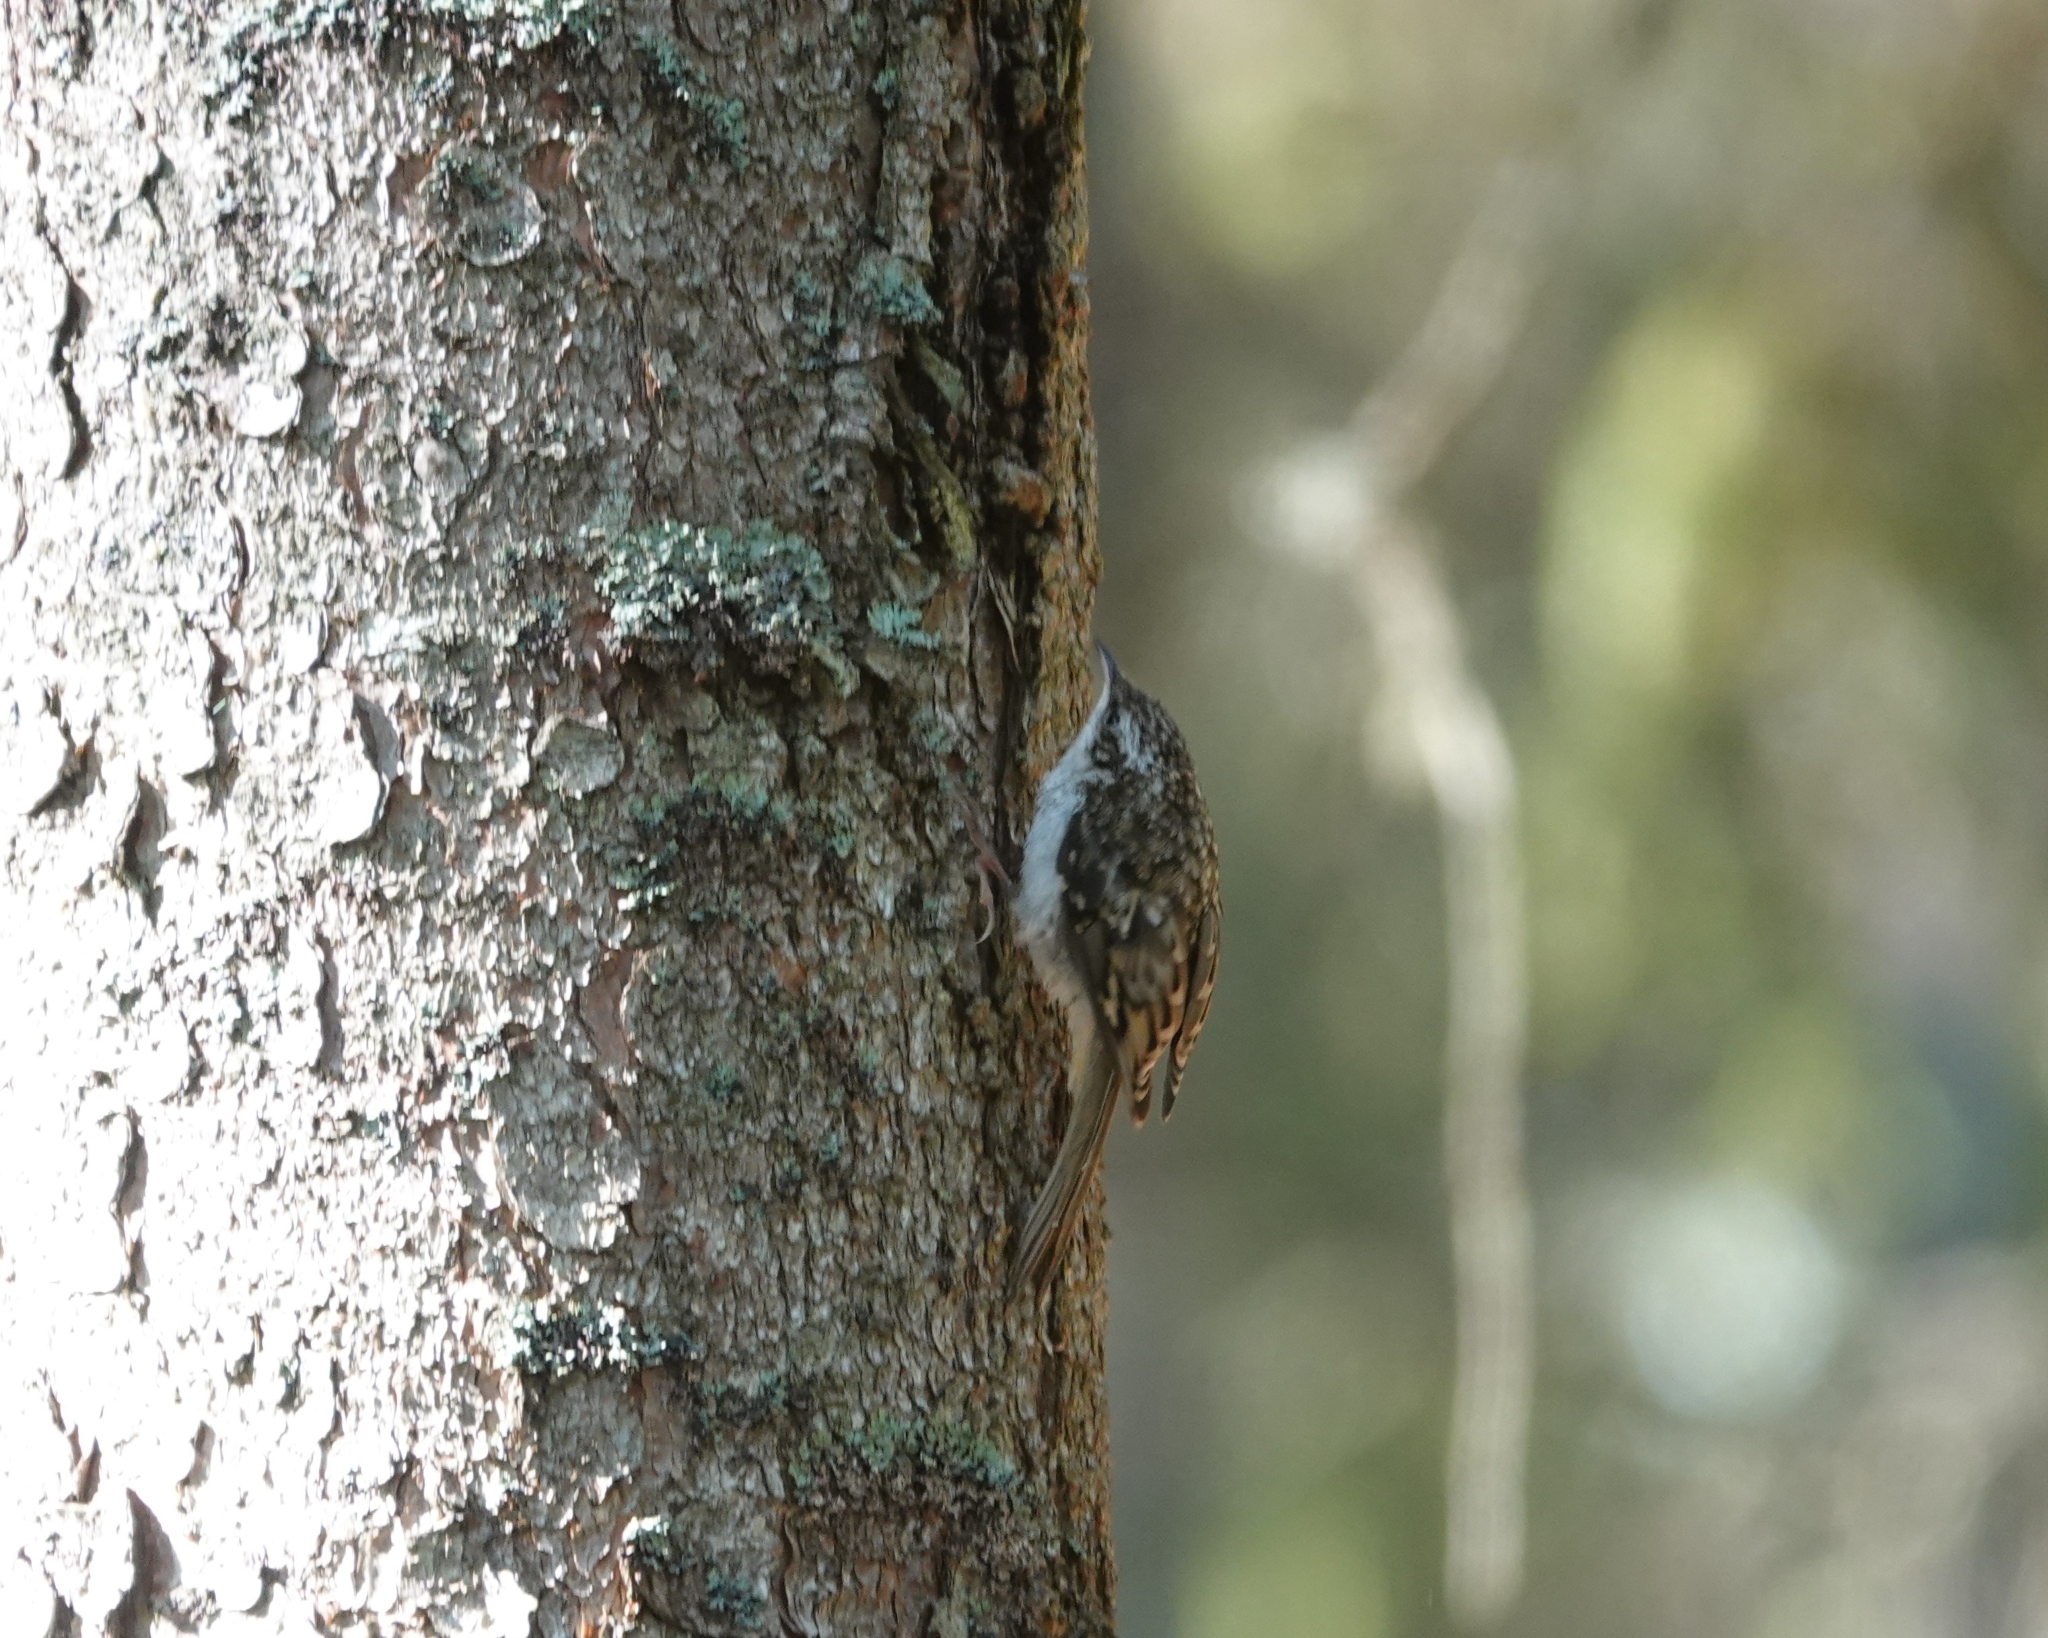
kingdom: Animalia
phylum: Chordata
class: Aves
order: Passeriformes
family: Certhiidae
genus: Certhia
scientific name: Certhia familiaris
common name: Eurasian treecreeper
